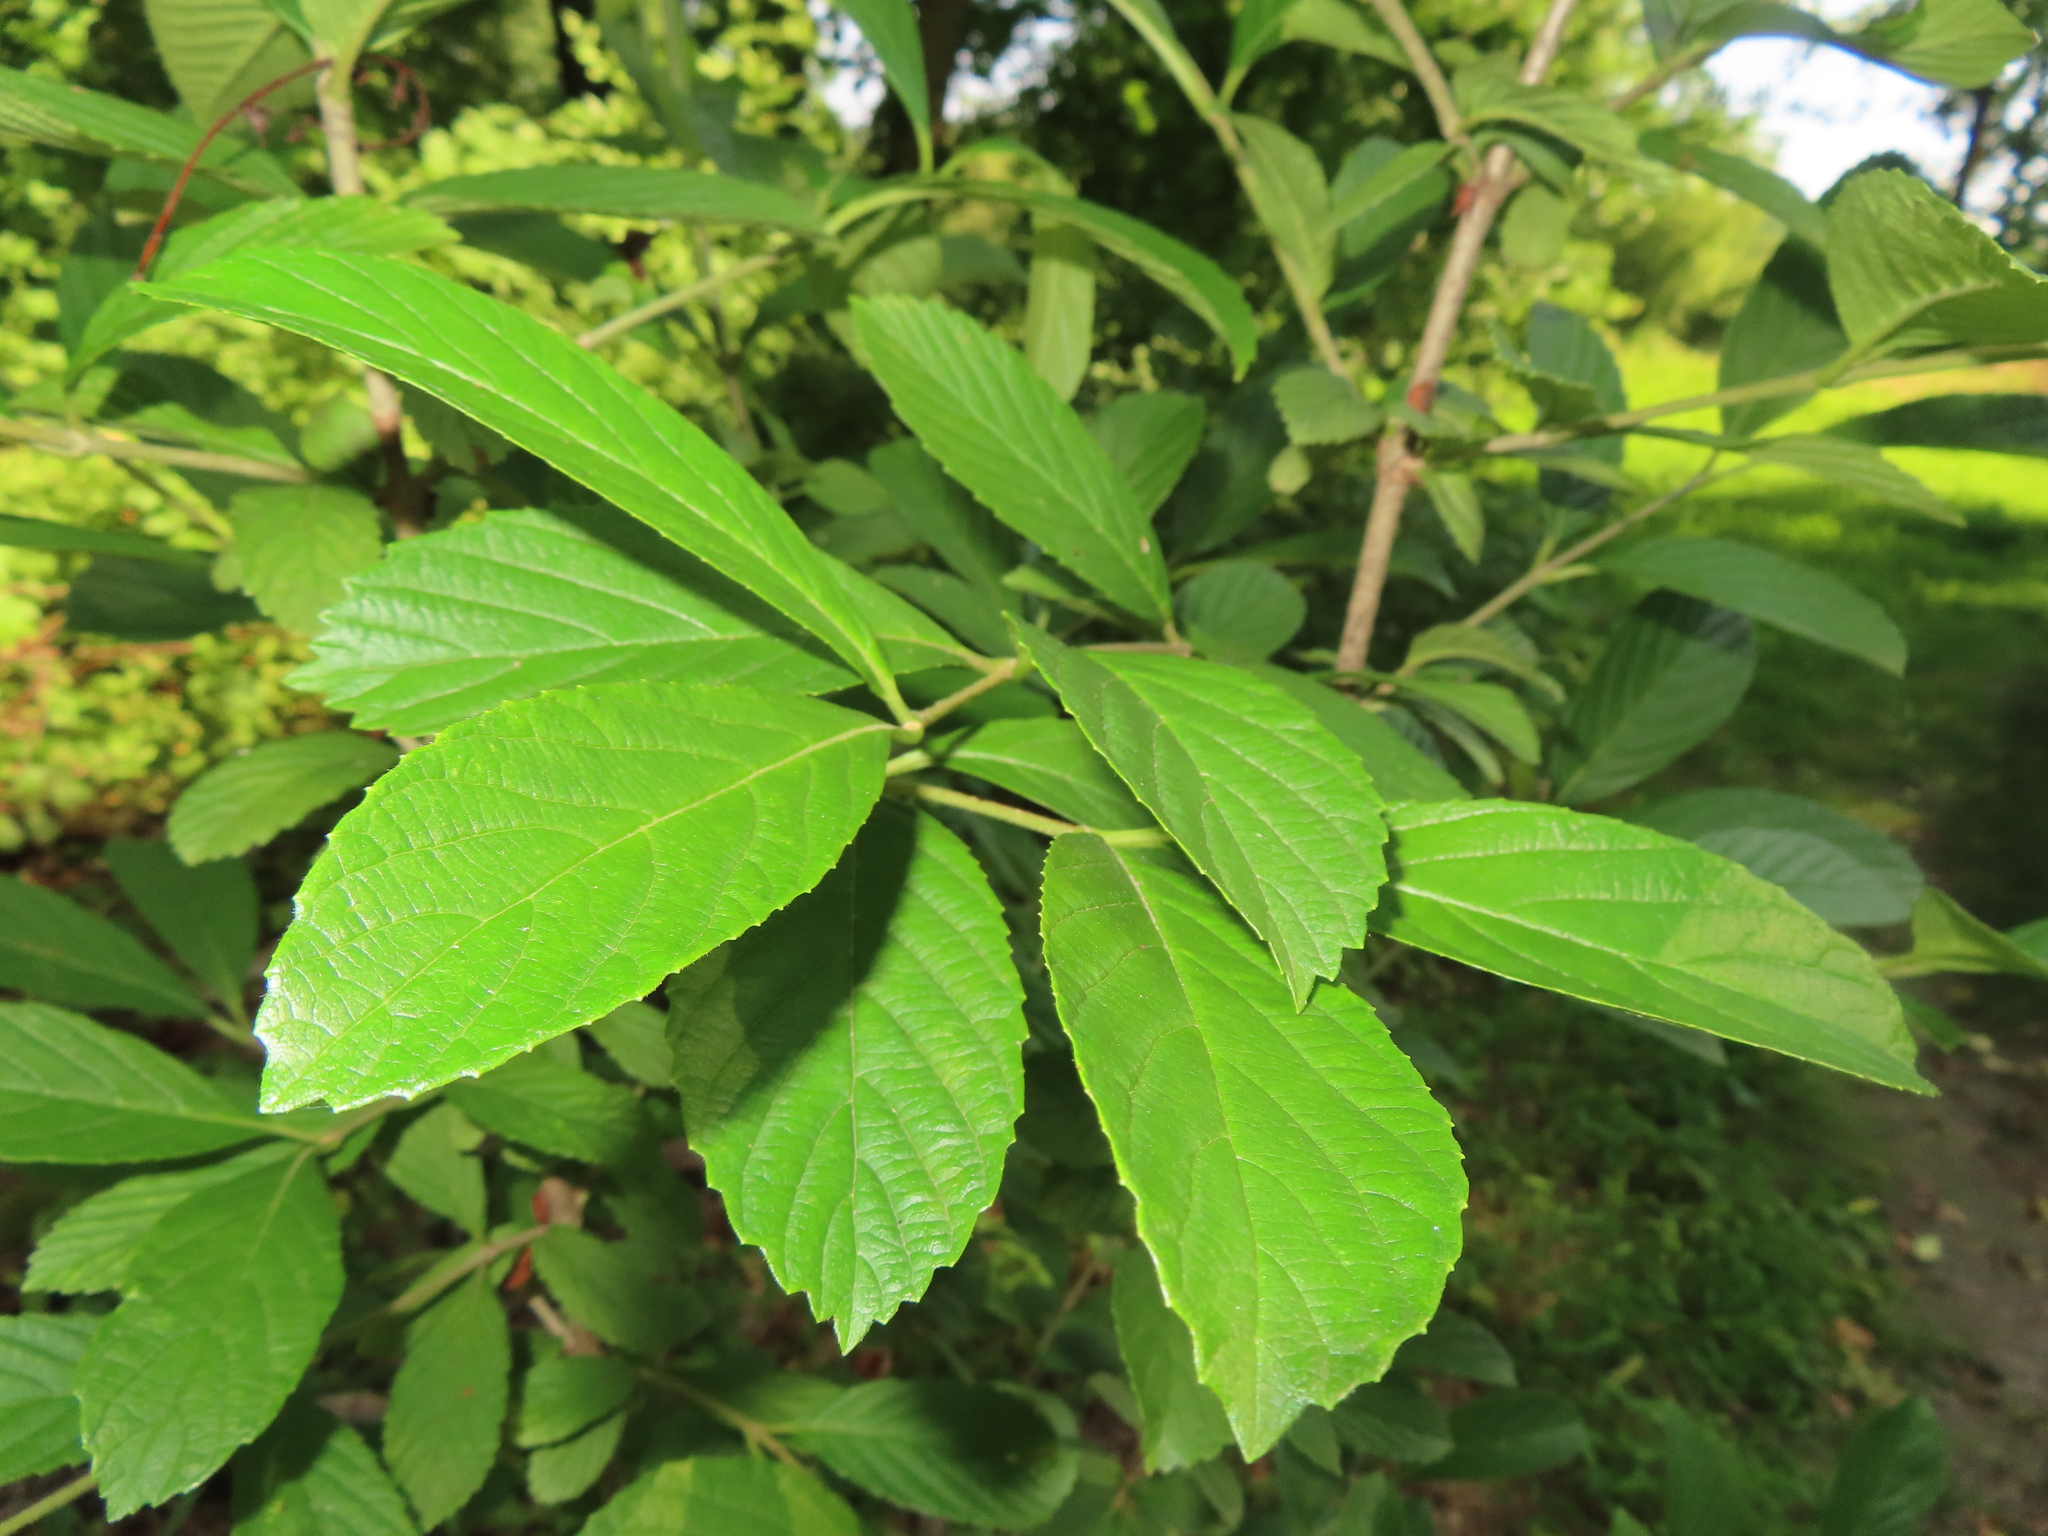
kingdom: Plantae
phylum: Tracheophyta
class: Magnoliopsida
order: Dipsacales
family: Viburnaceae
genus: Viburnum
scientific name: Viburnum sieboldii
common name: Siebold's arrowwood
